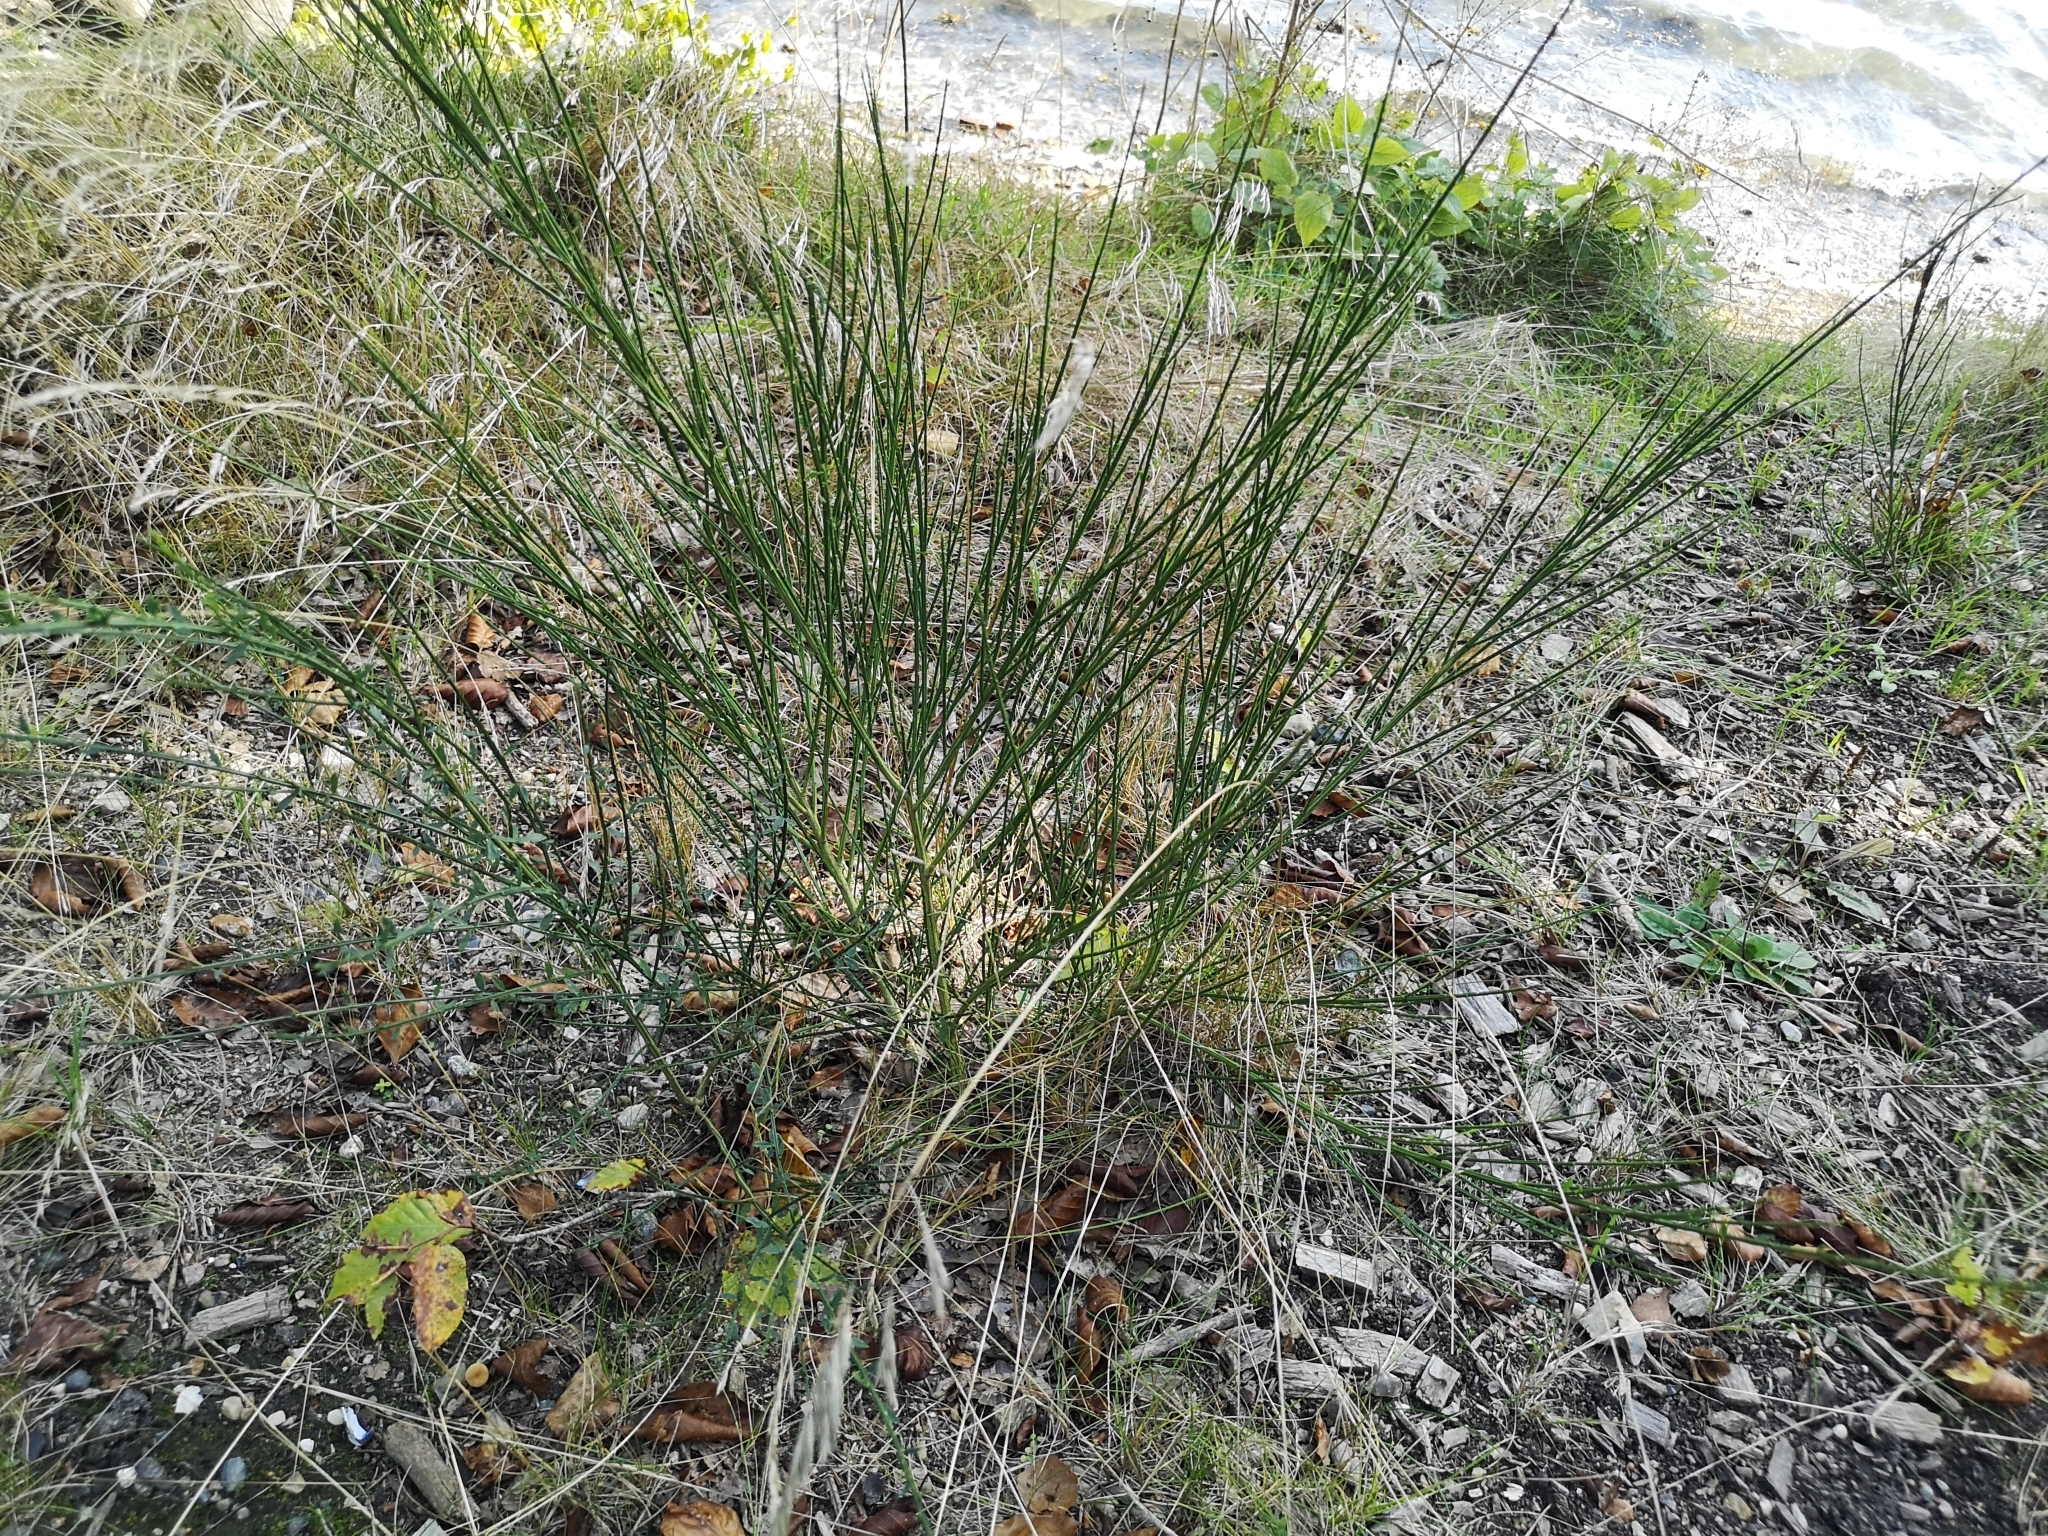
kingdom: Plantae
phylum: Tracheophyta
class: Magnoliopsida
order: Fabales
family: Fabaceae
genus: Cytisus
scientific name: Cytisus scoparius
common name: Scotch broom
